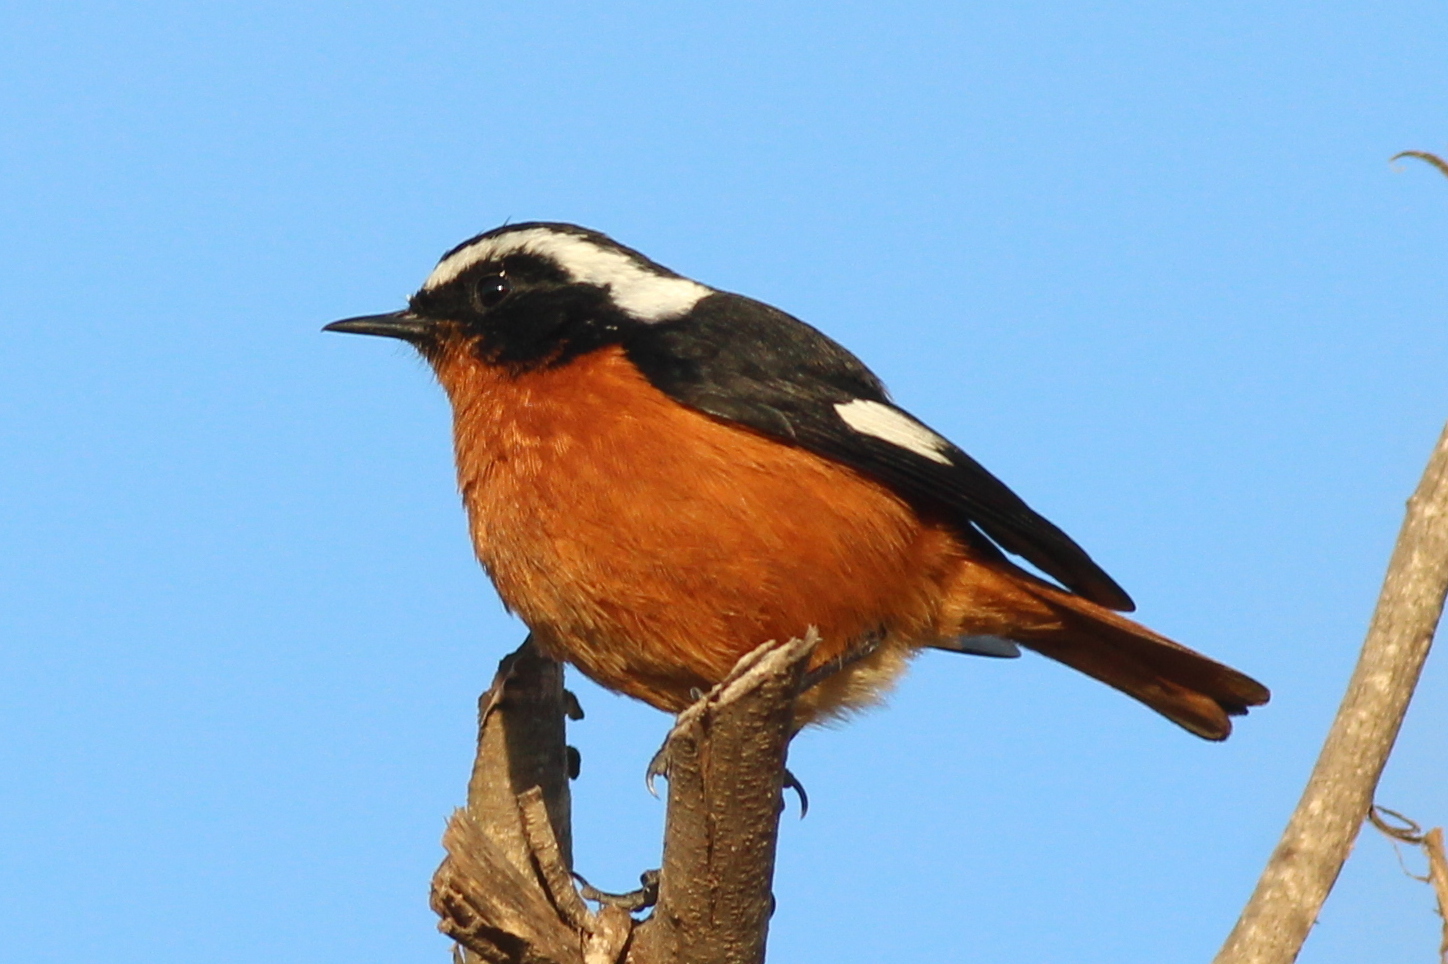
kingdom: Animalia
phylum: Chordata
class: Aves
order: Passeriformes
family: Muscicapidae
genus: Phoenicurus
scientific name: Phoenicurus moussieri
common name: Moussier's redstart
